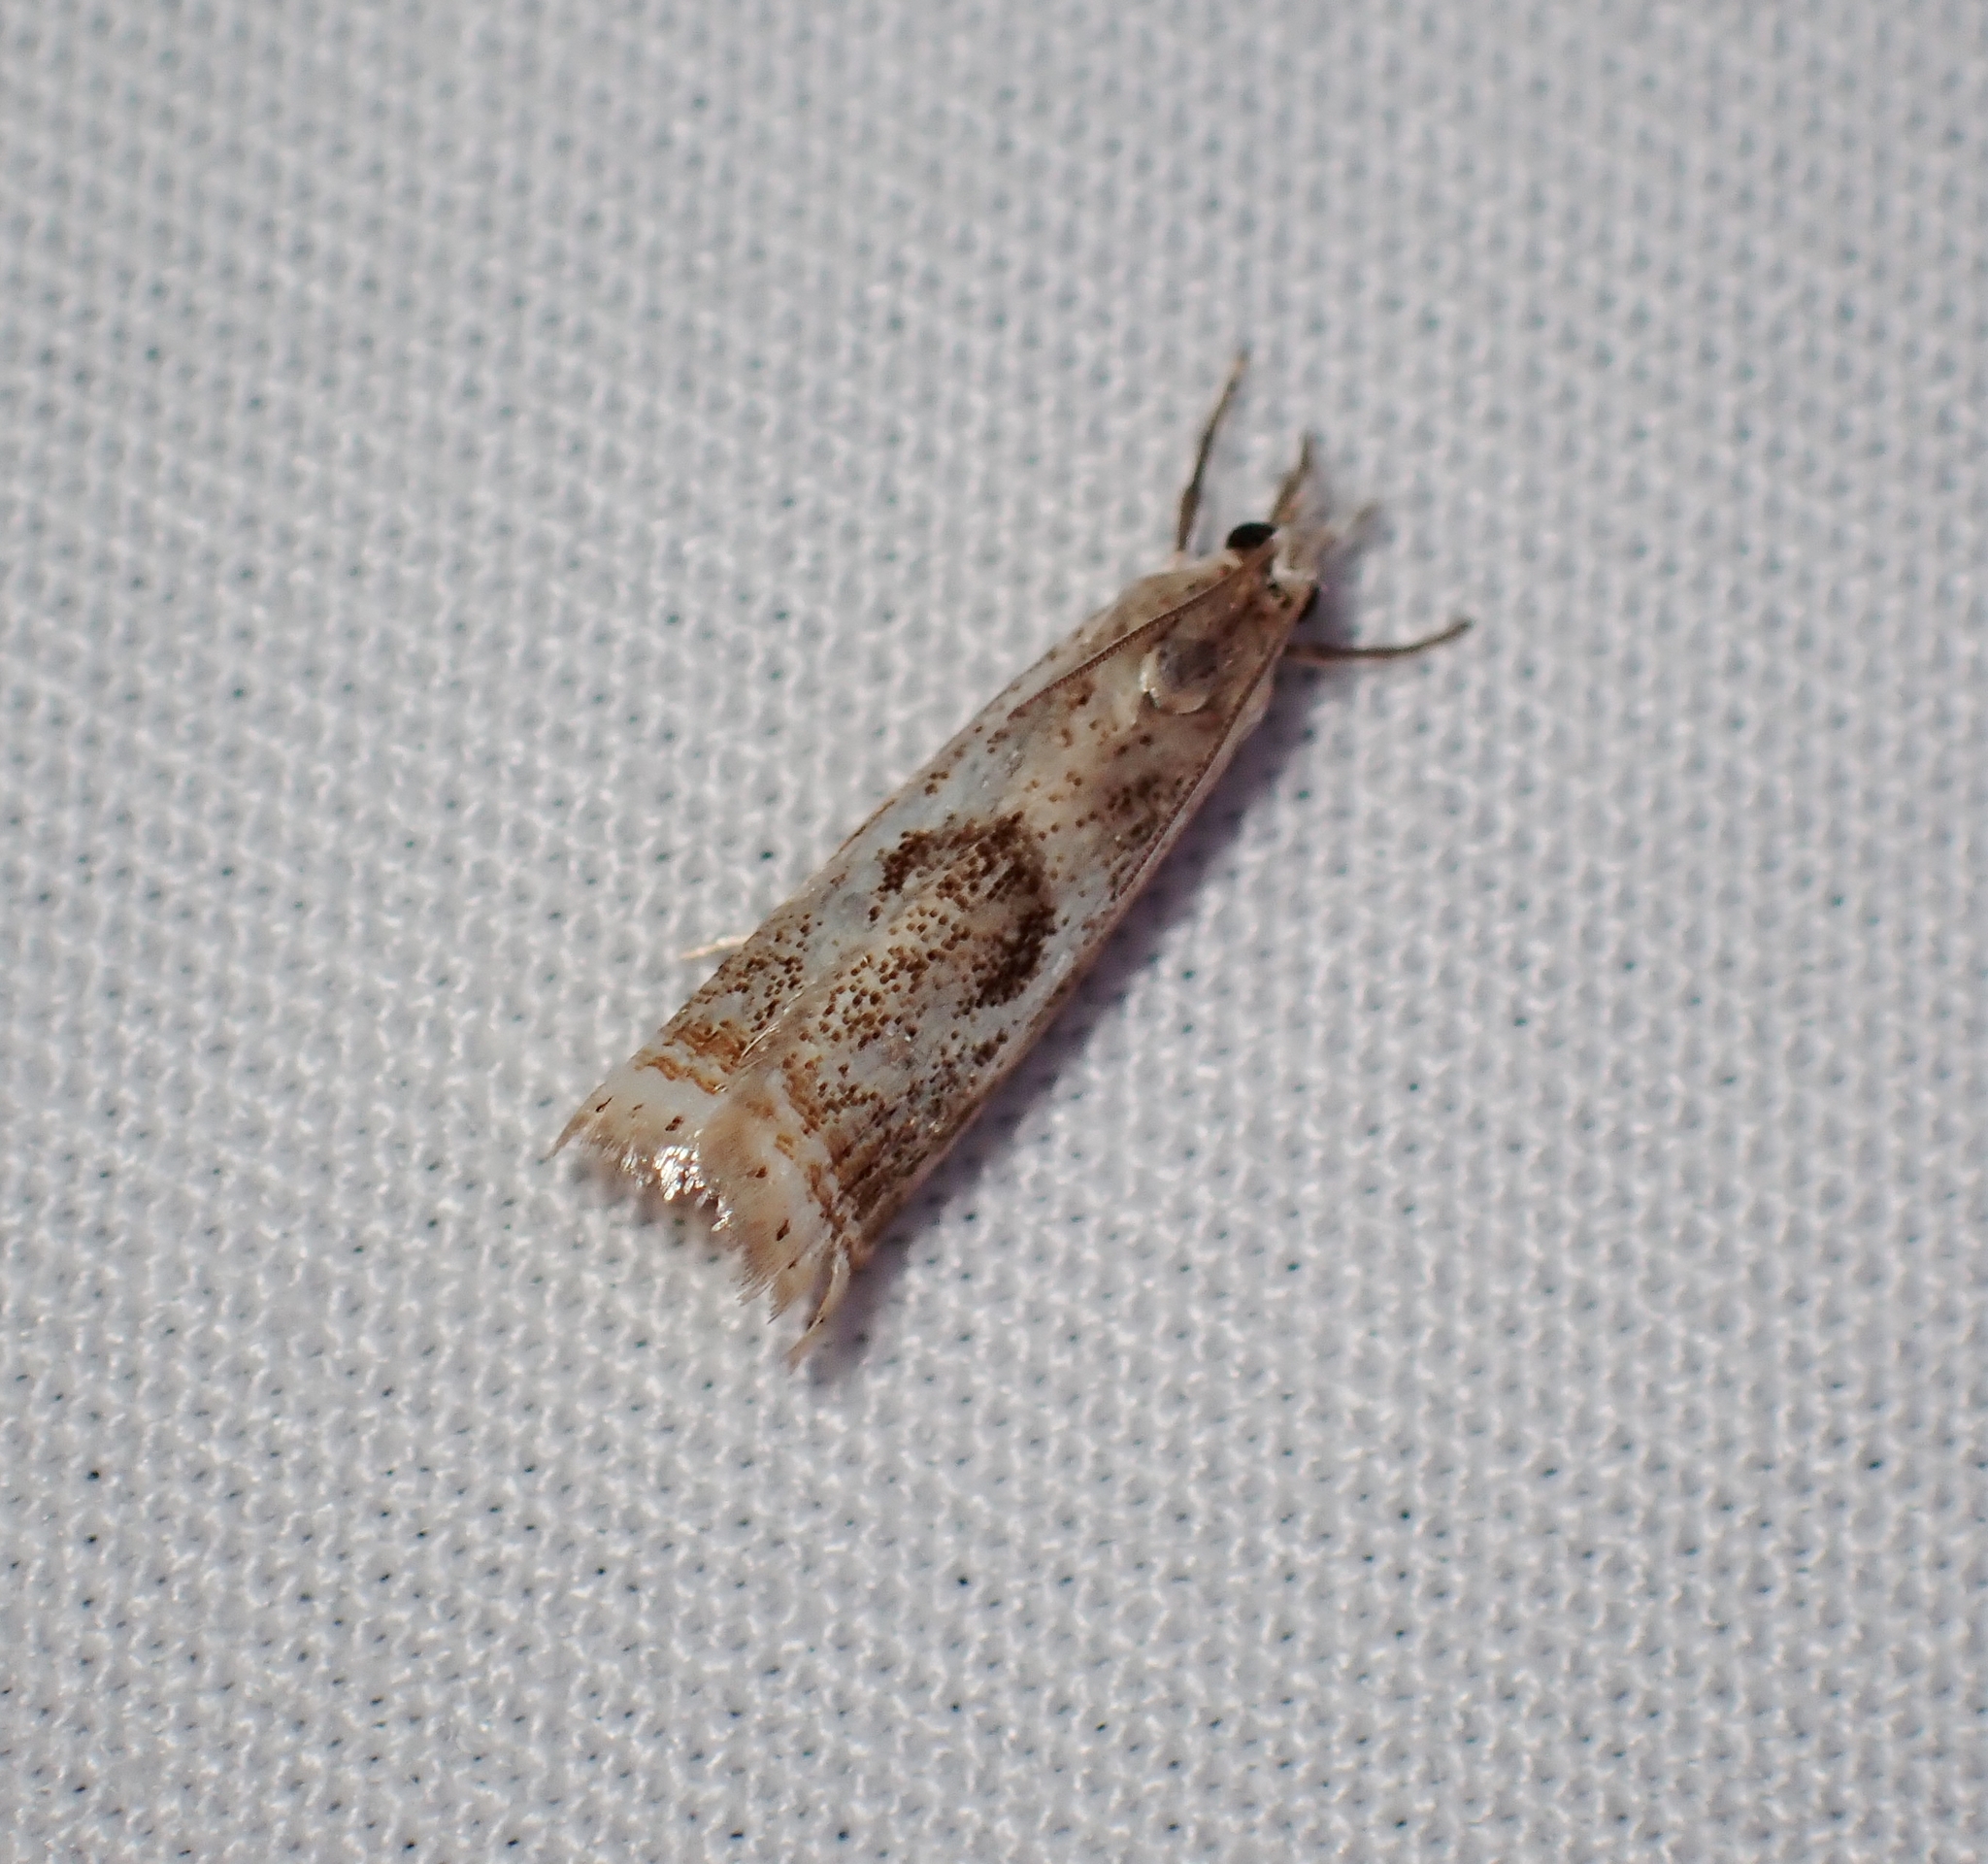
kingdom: Animalia
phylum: Arthropoda
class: Insecta
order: Lepidoptera
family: Crambidae
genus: Microcrambus
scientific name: Microcrambus elegans
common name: Elegant grass-veneer
